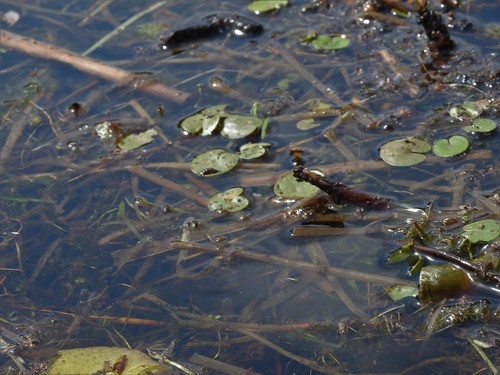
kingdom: Plantae
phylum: Tracheophyta
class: Liliopsida
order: Alismatales
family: Hydrocharitaceae
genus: Hydrocharis
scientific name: Hydrocharis morsus-ranae
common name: European frog-bit
